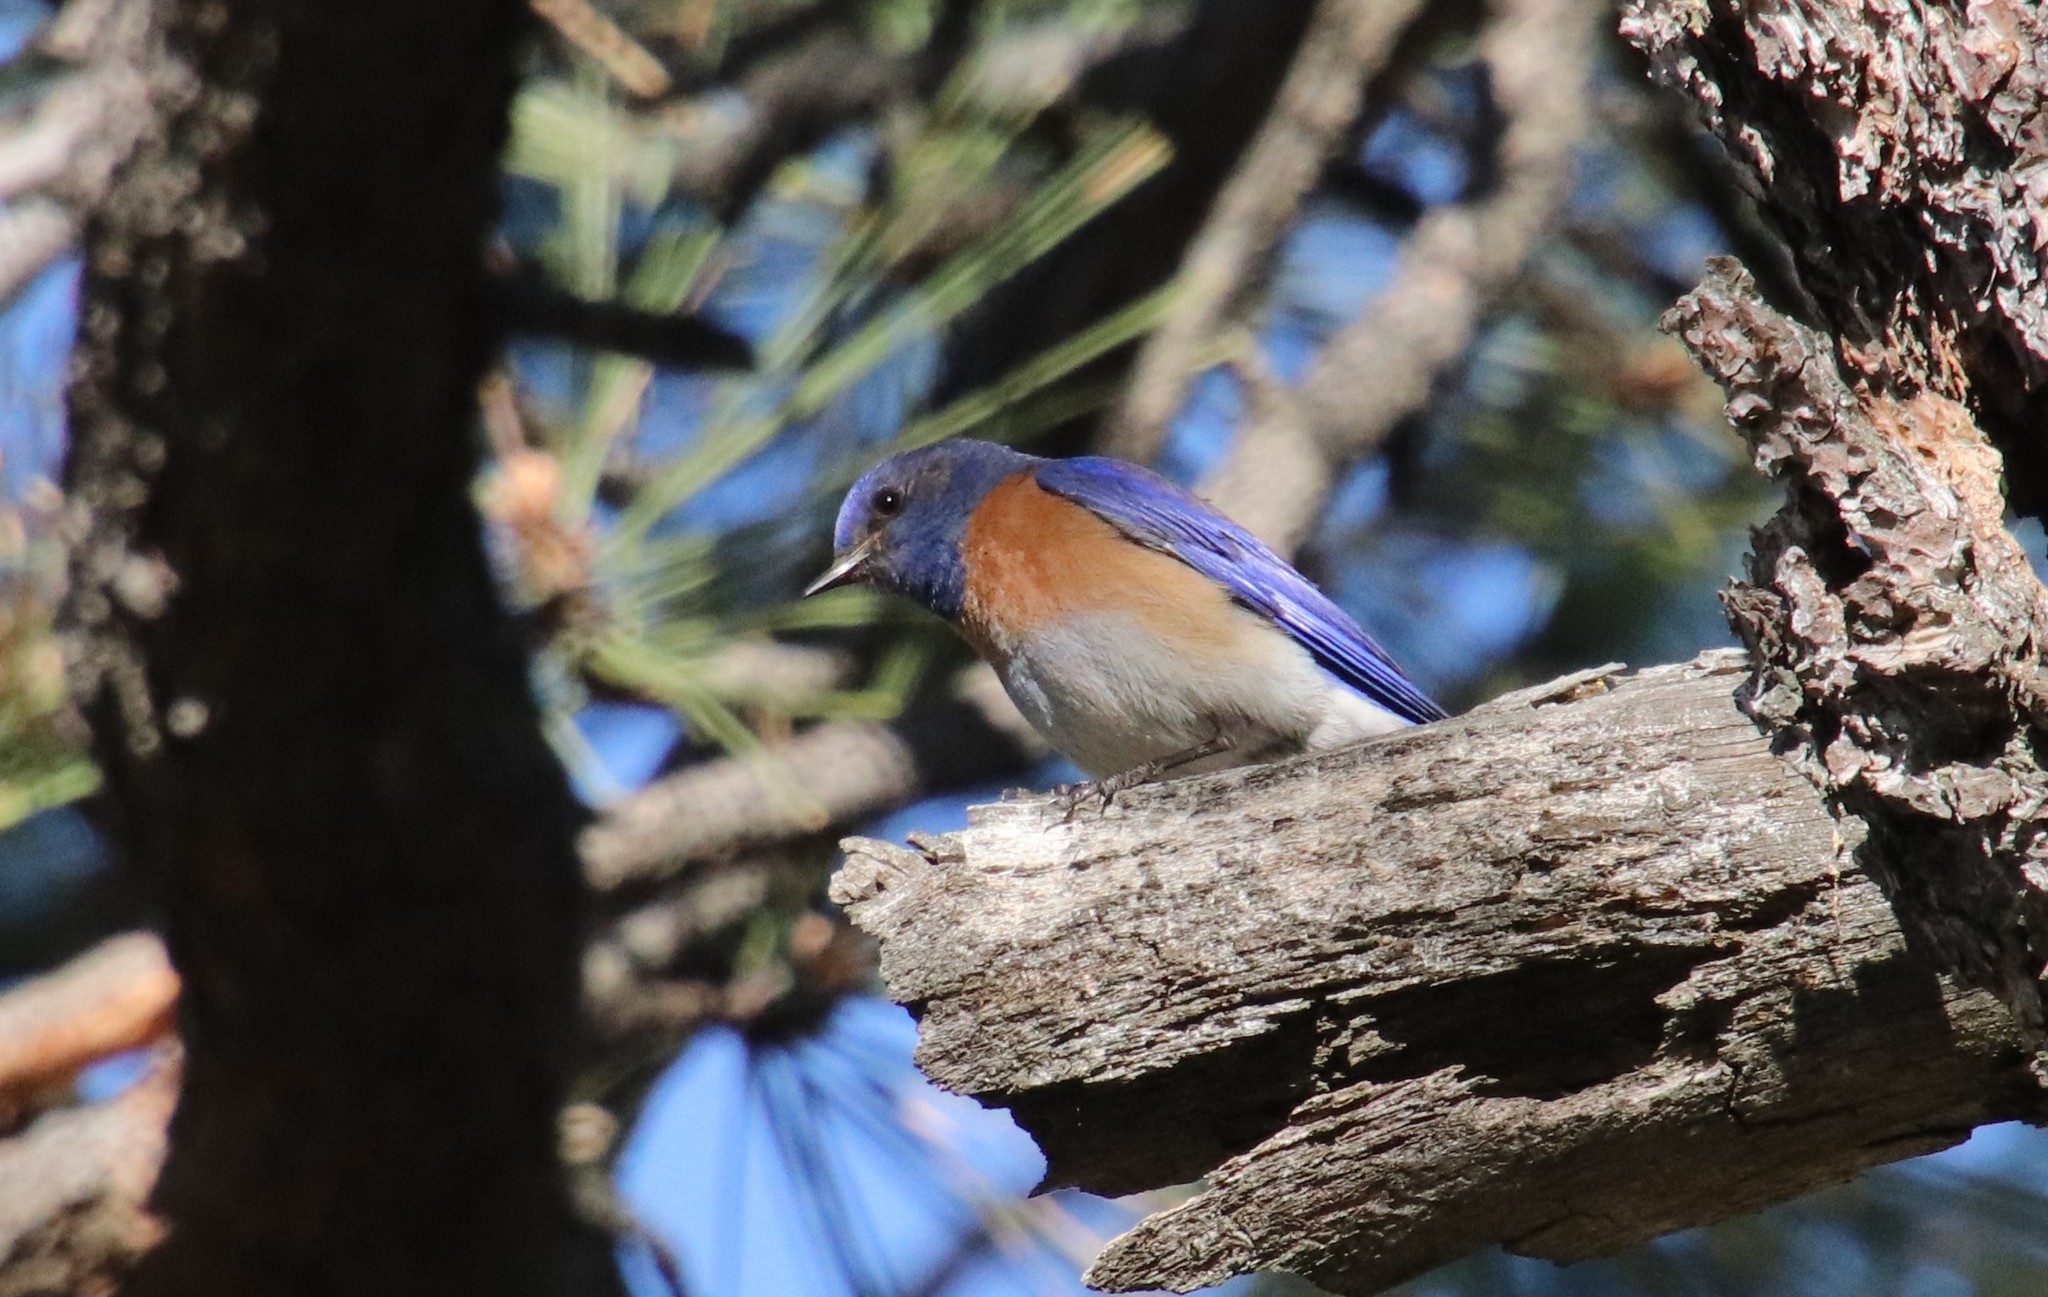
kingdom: Animalia
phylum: Chordata
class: Aves
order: Passeriformes
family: Turdidae
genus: Sialia
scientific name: Sialia mexicana
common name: Western bluebird
